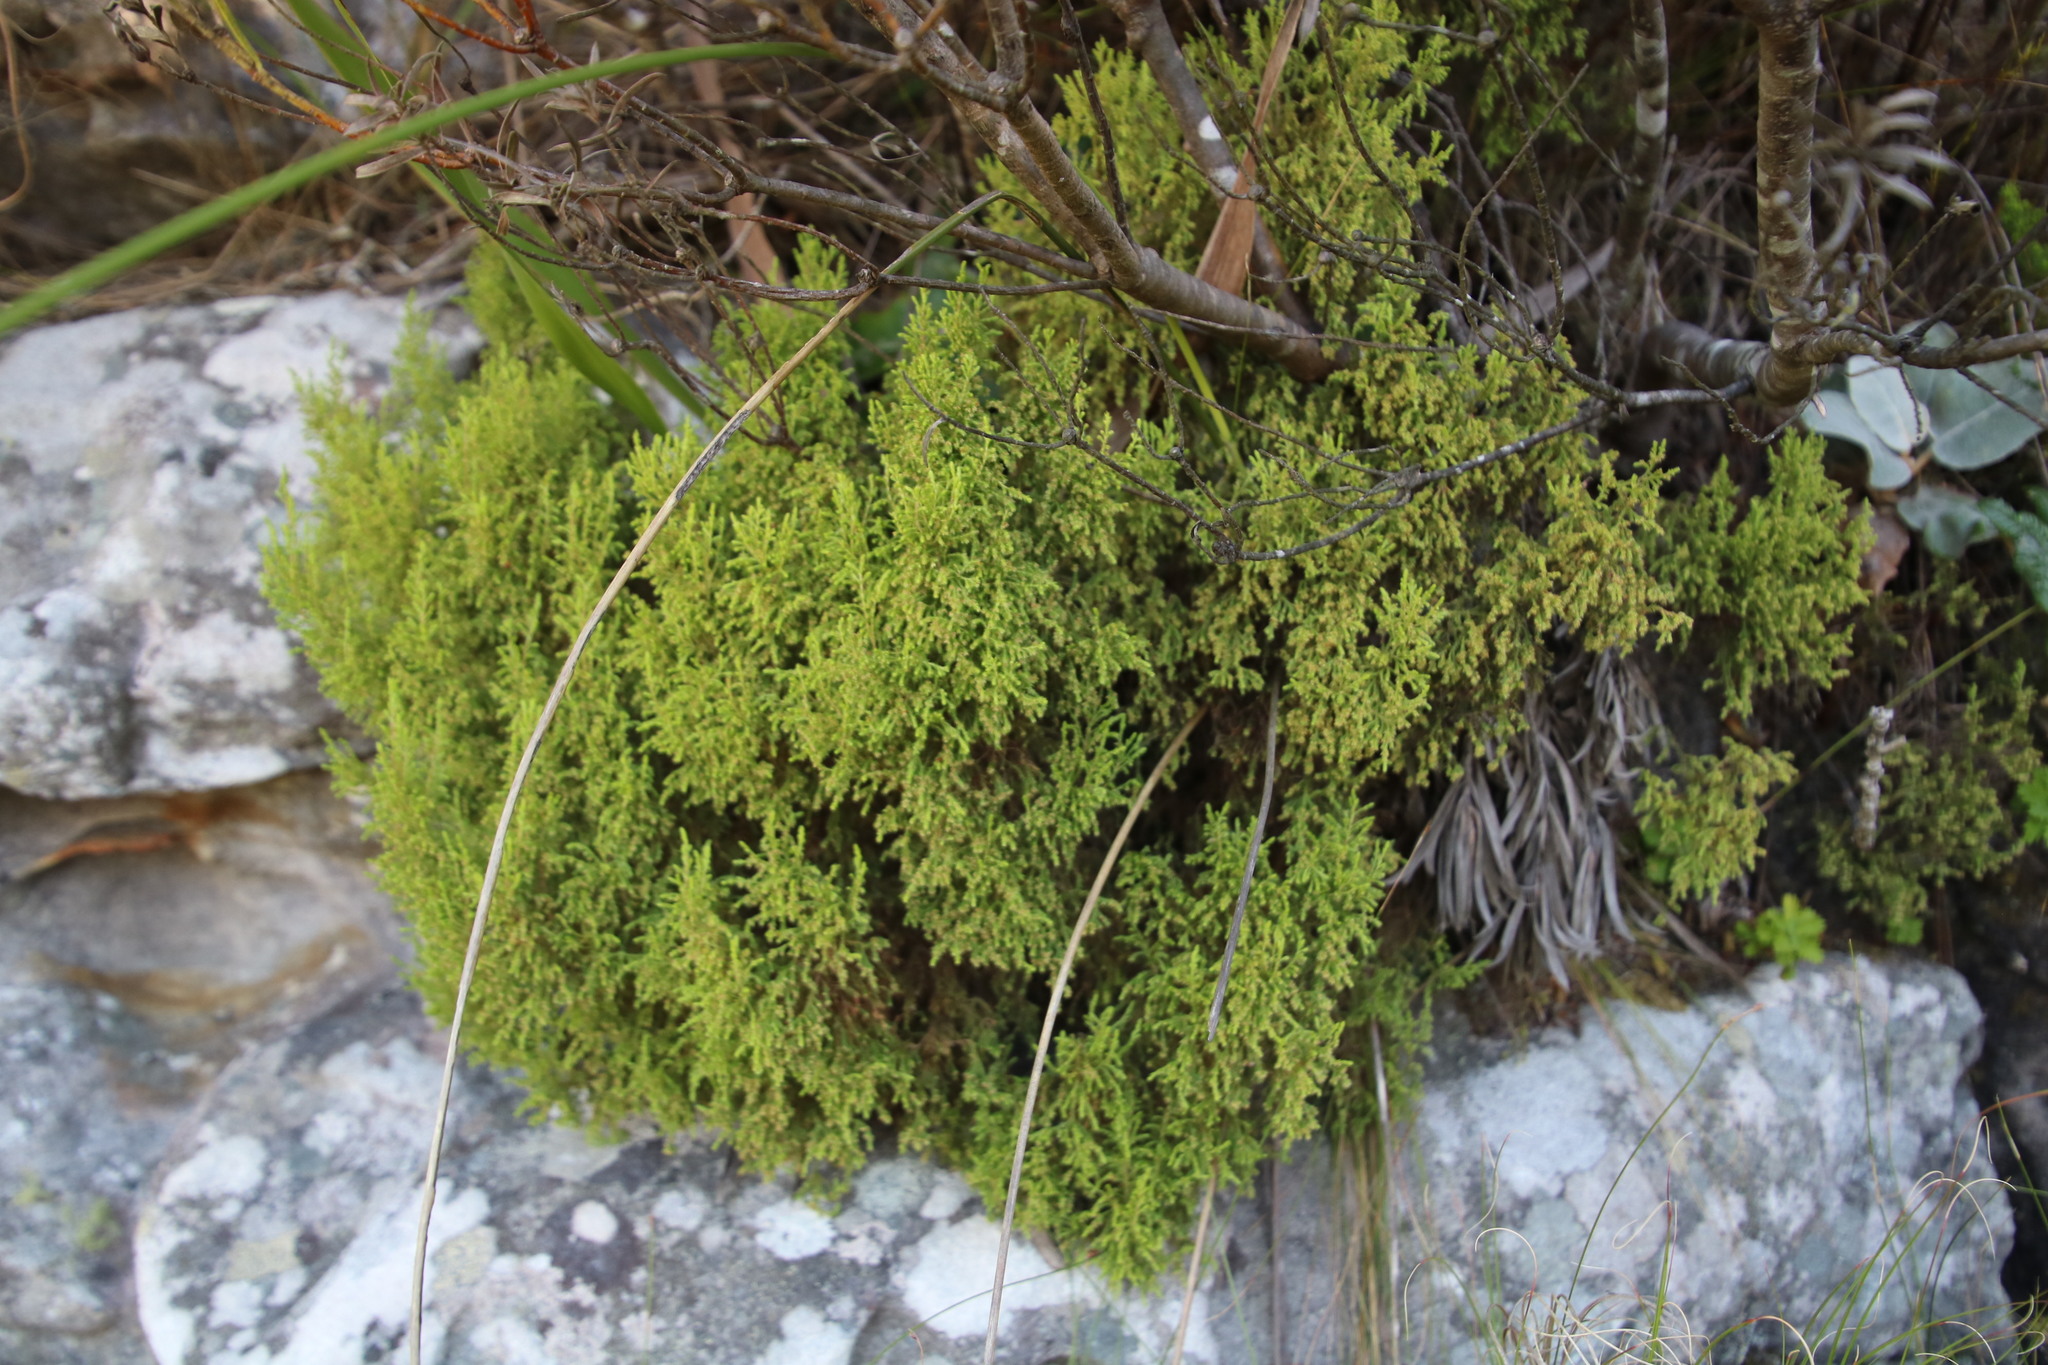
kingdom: Plantae
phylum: Tracheophyta
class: Magnoliopsida
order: Ericales
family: Ericaceae
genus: Erica
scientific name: Erica urceolata
